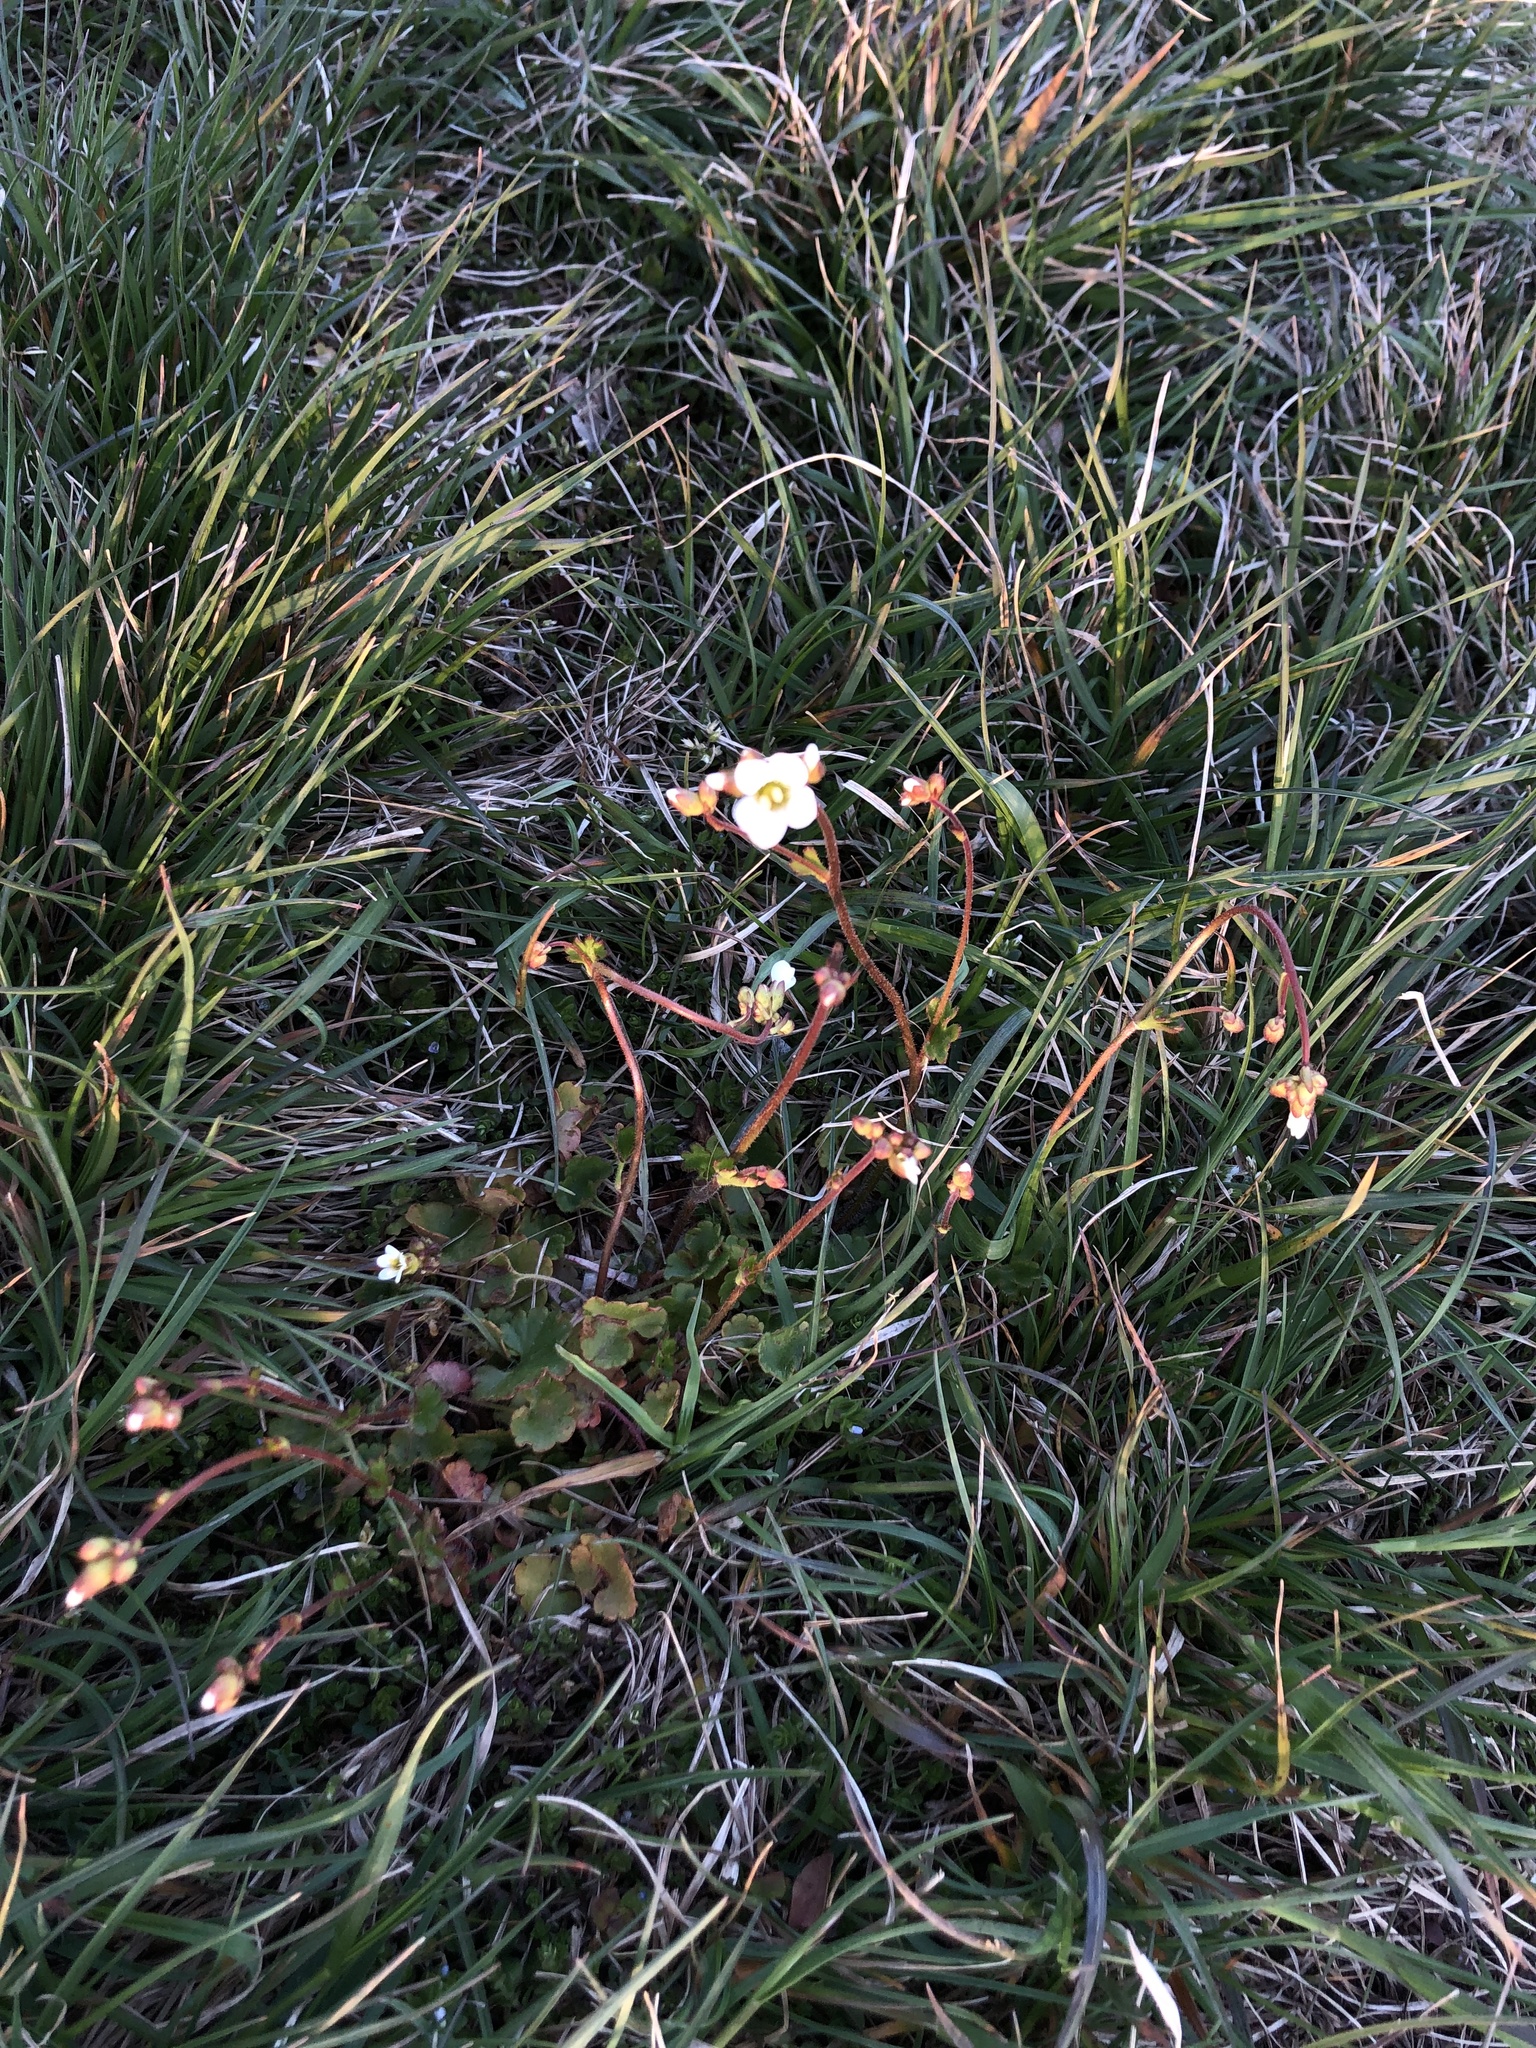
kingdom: Plantae
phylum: Tracheophyta
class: Magnoliopsida
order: Saxifragales
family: Saxifragaceae
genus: Saxifraga
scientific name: Saxifraga granulata
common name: Meadow saxifrage
